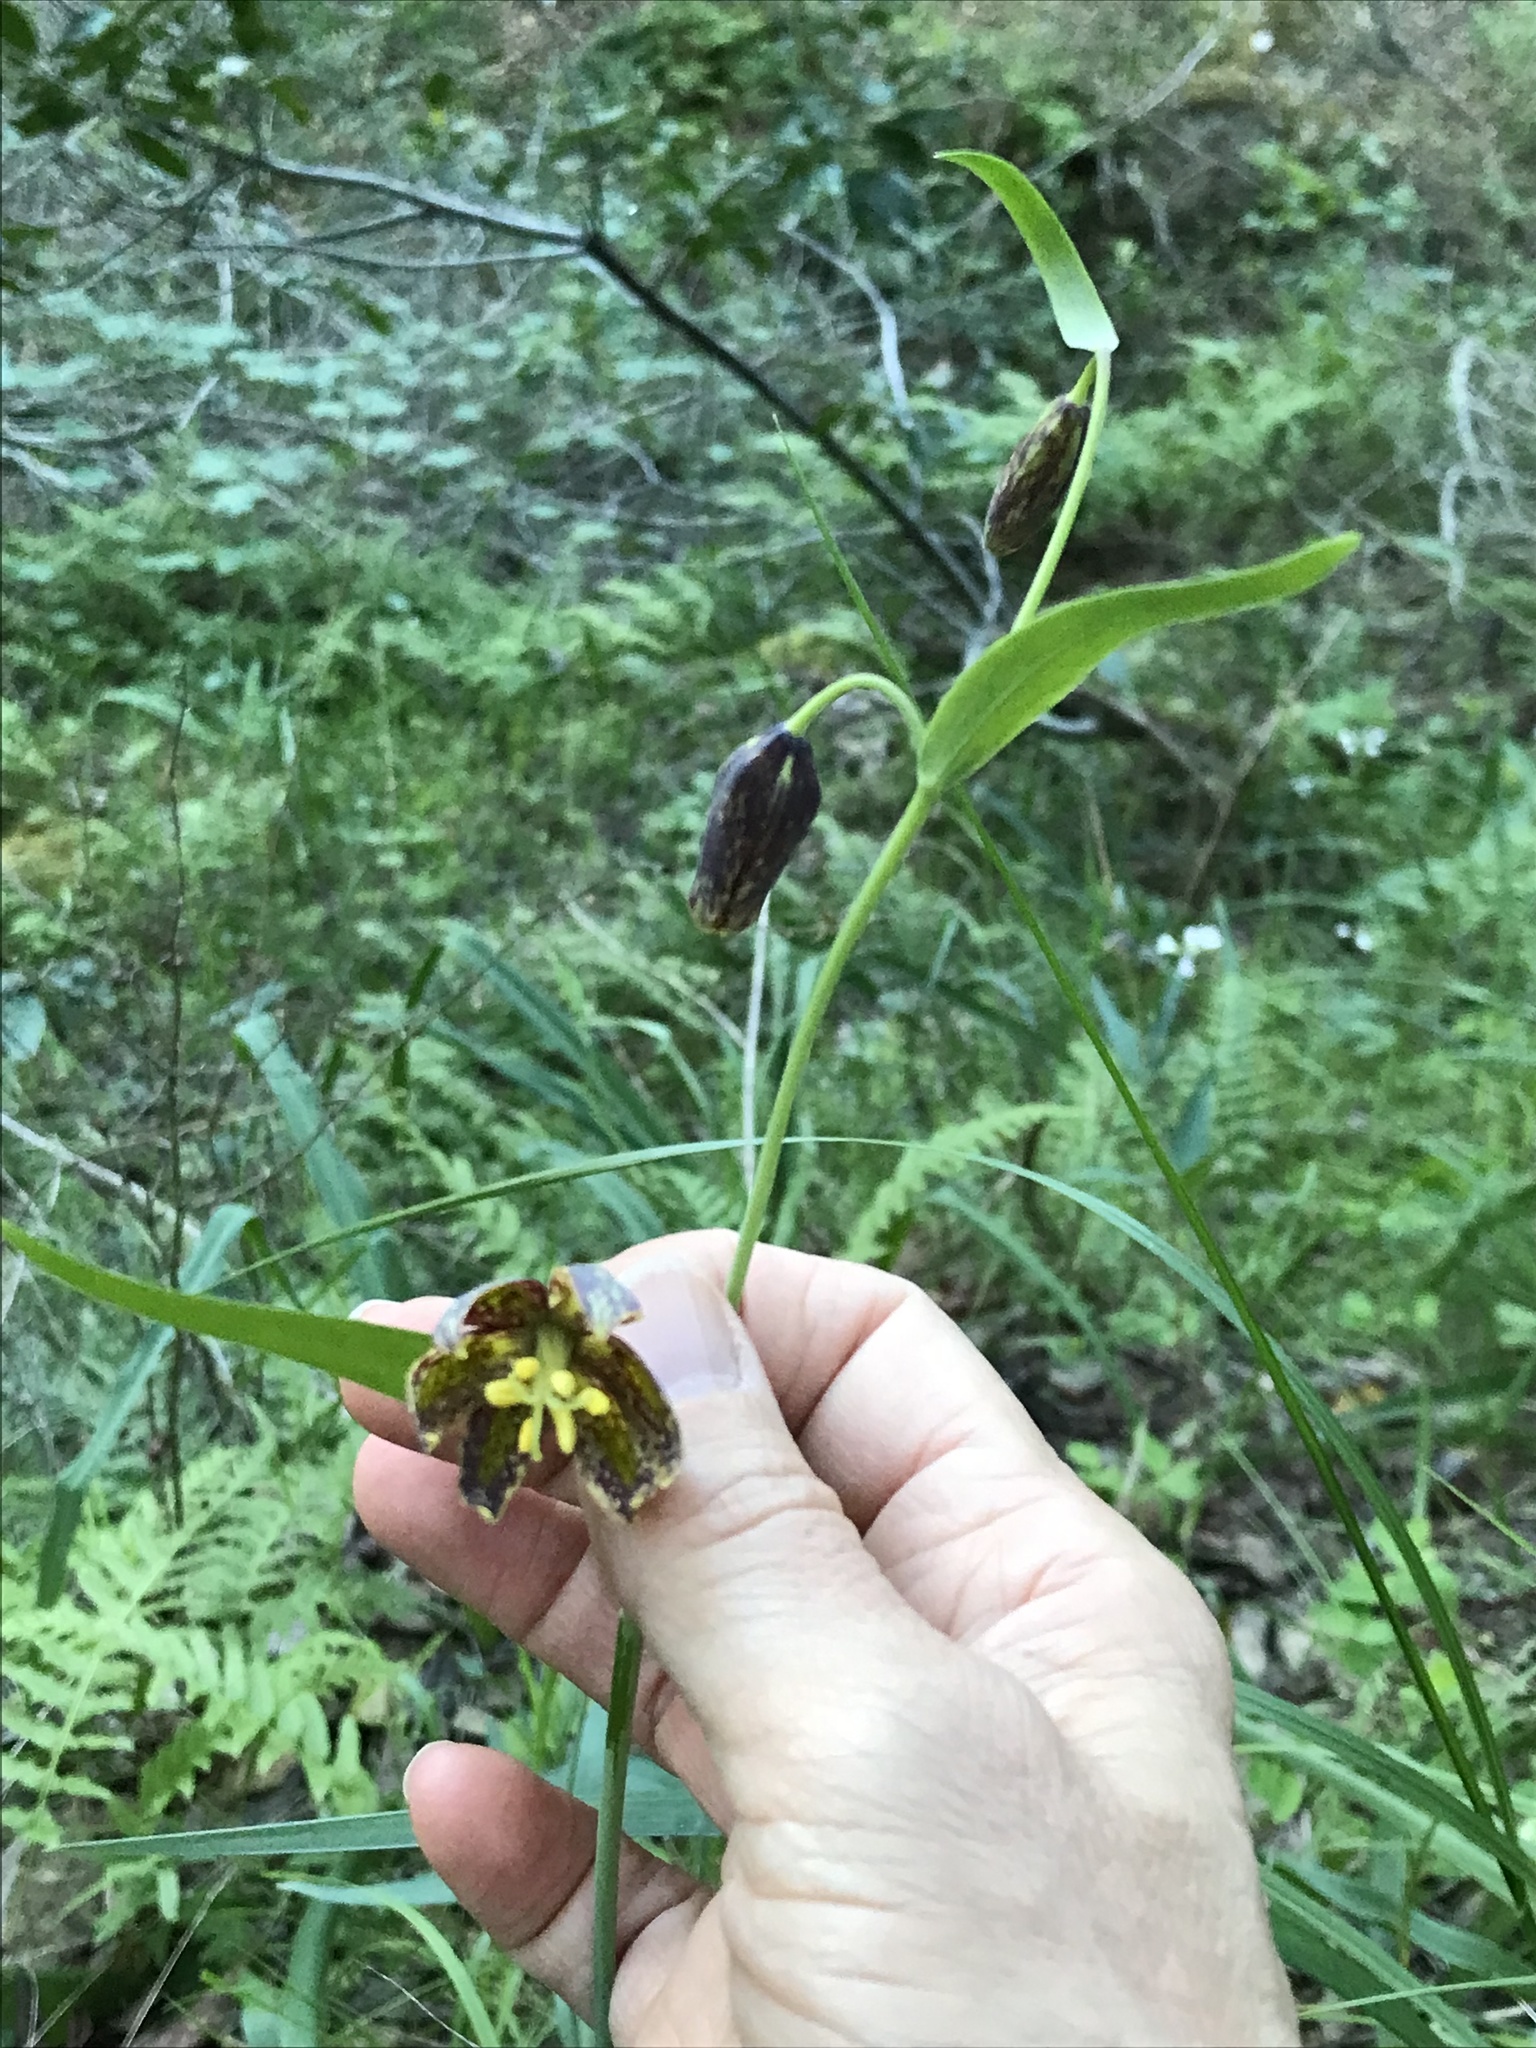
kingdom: Plantae
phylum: Tracheophyta
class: Liliopsida
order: Liliales
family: Liliaceae
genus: Fritillaria
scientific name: Fritillaria affinis
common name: Ojai fritillary
